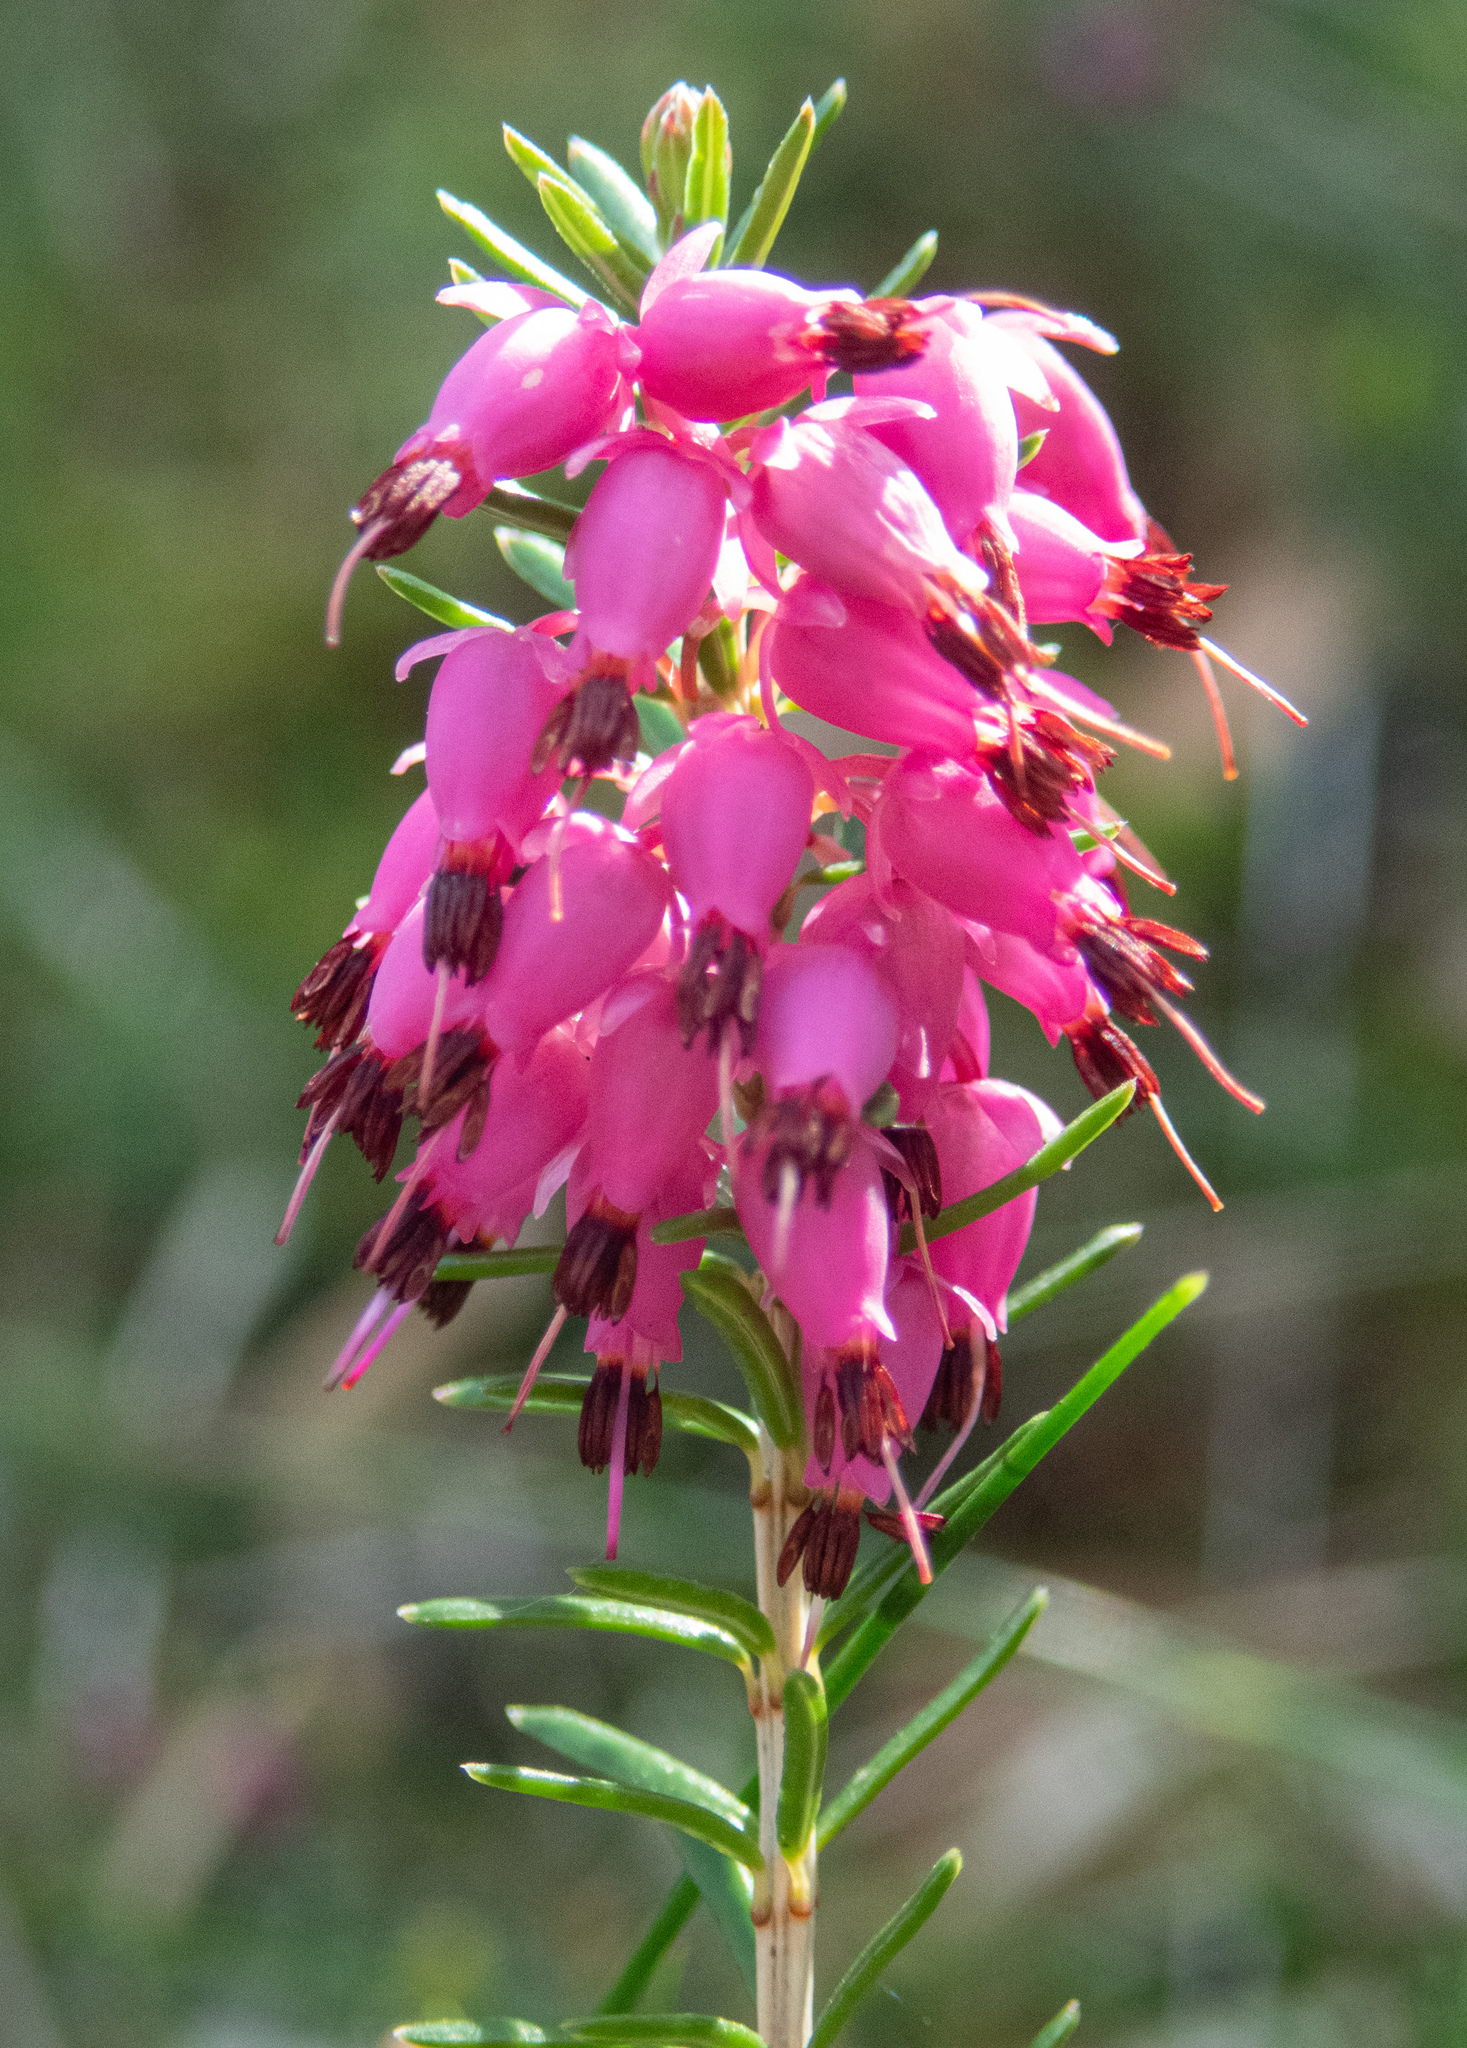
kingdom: Plantae
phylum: Tracheophyta
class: Magnoliopsida
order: Ericales
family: Ericaceae
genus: Erica
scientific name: Erica carnea
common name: Winter heath
